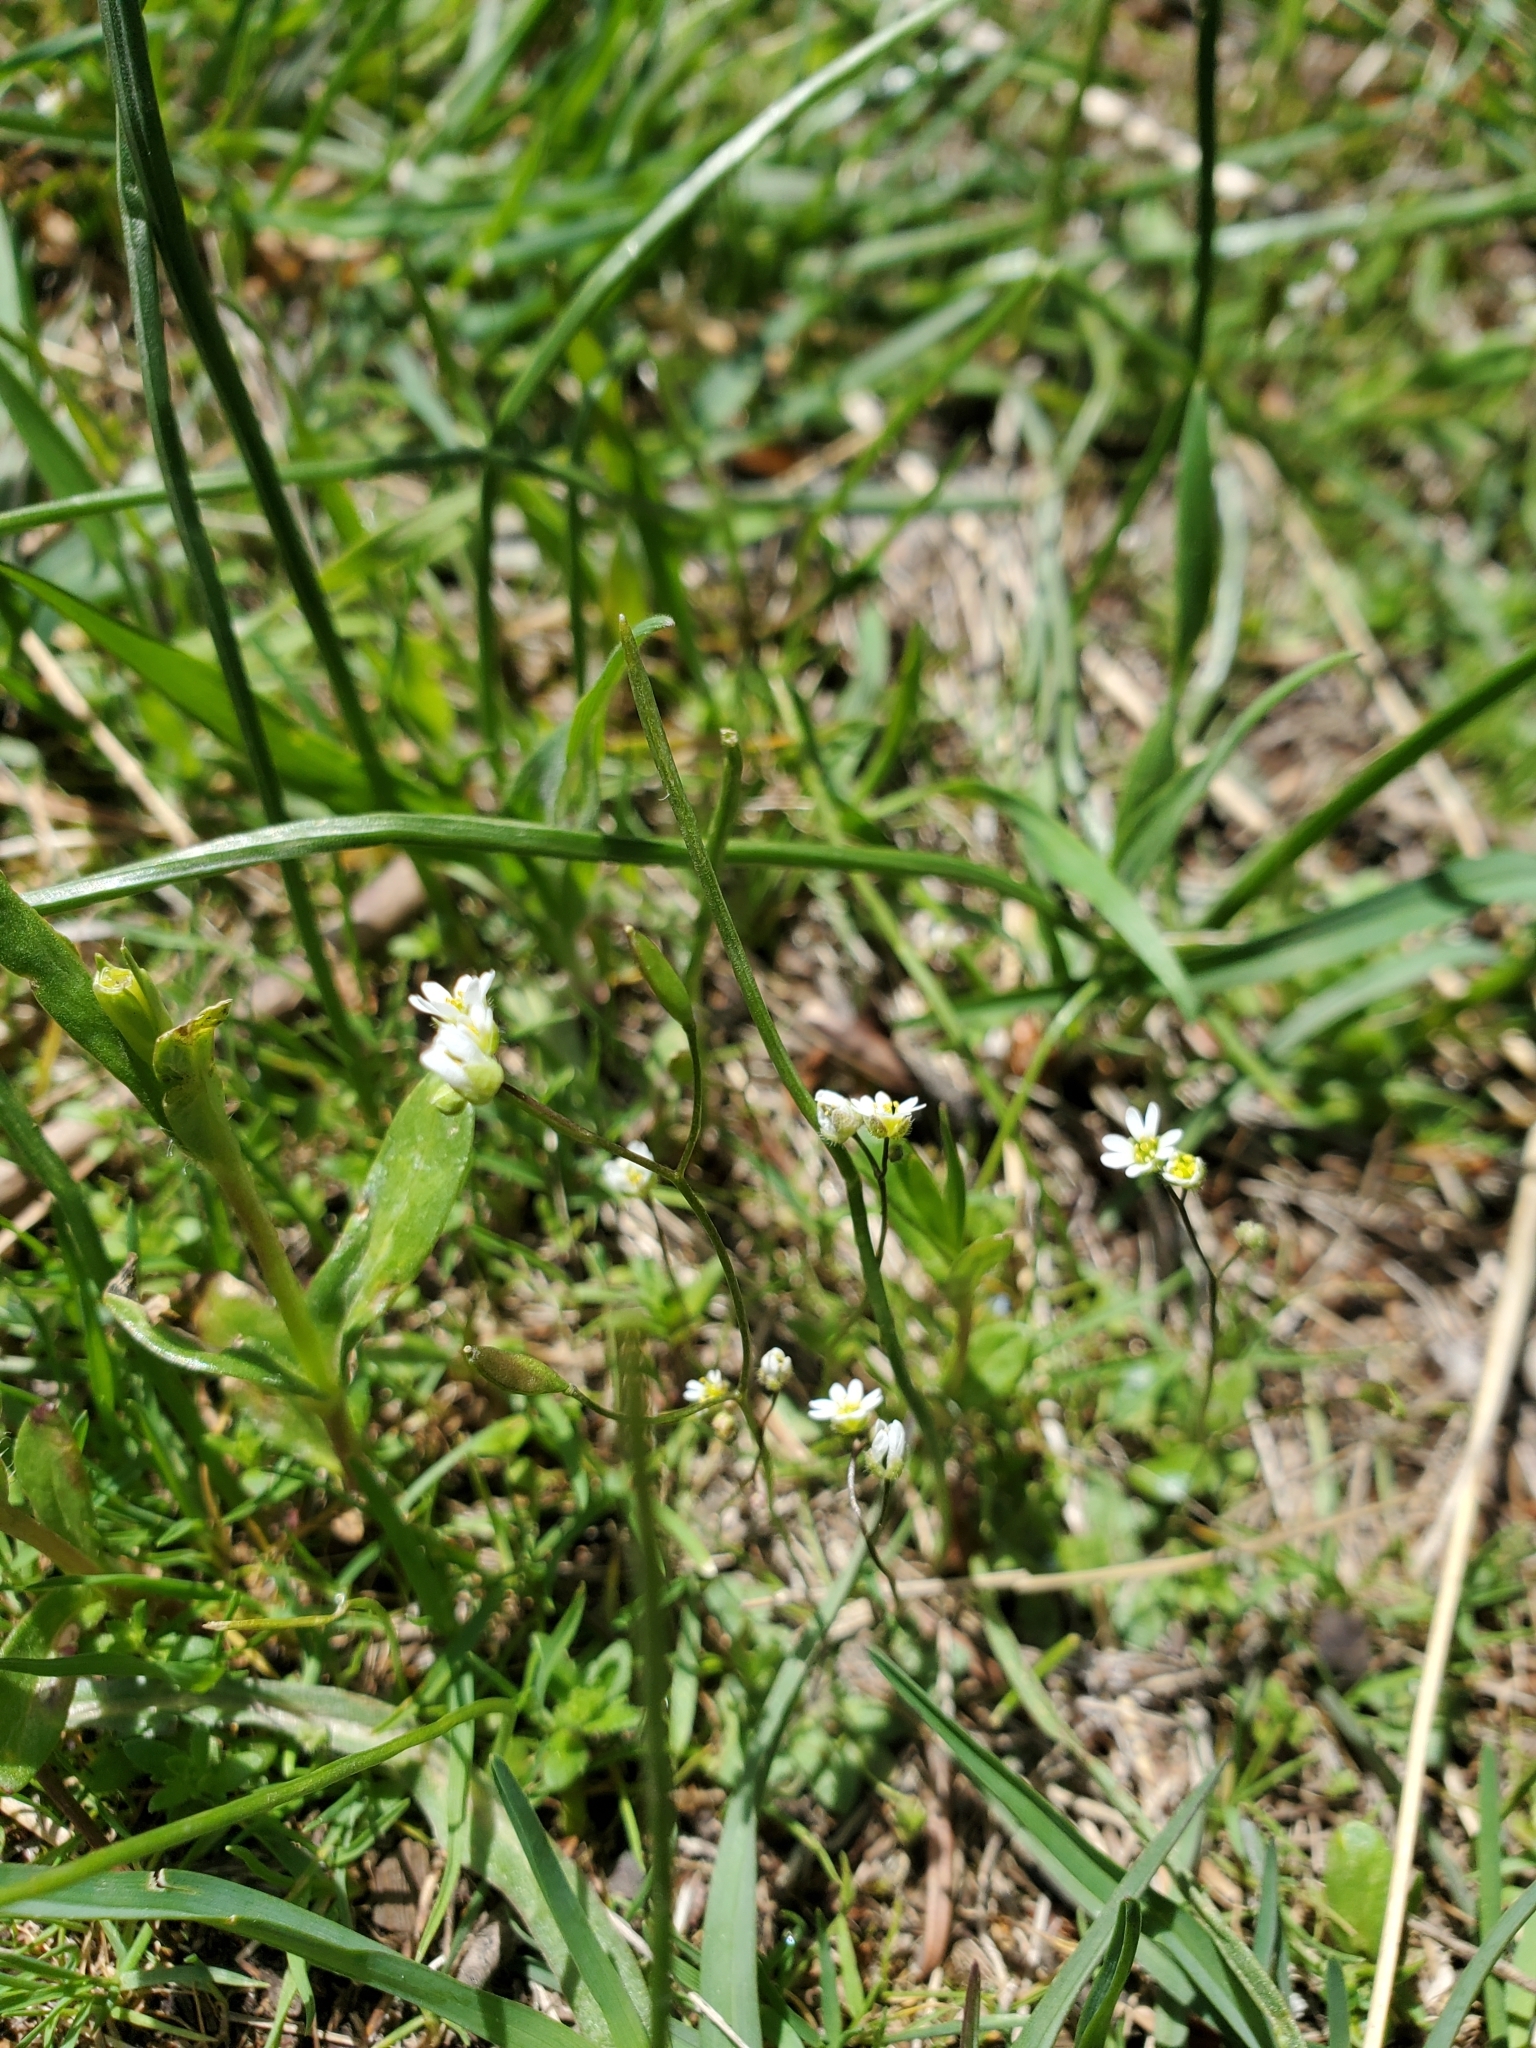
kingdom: Plantae
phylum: Tracheophyta
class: Magnoliopsida
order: Brassicales
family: Brassicaceae
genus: Draba
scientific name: Draba verna
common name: Spring draba
